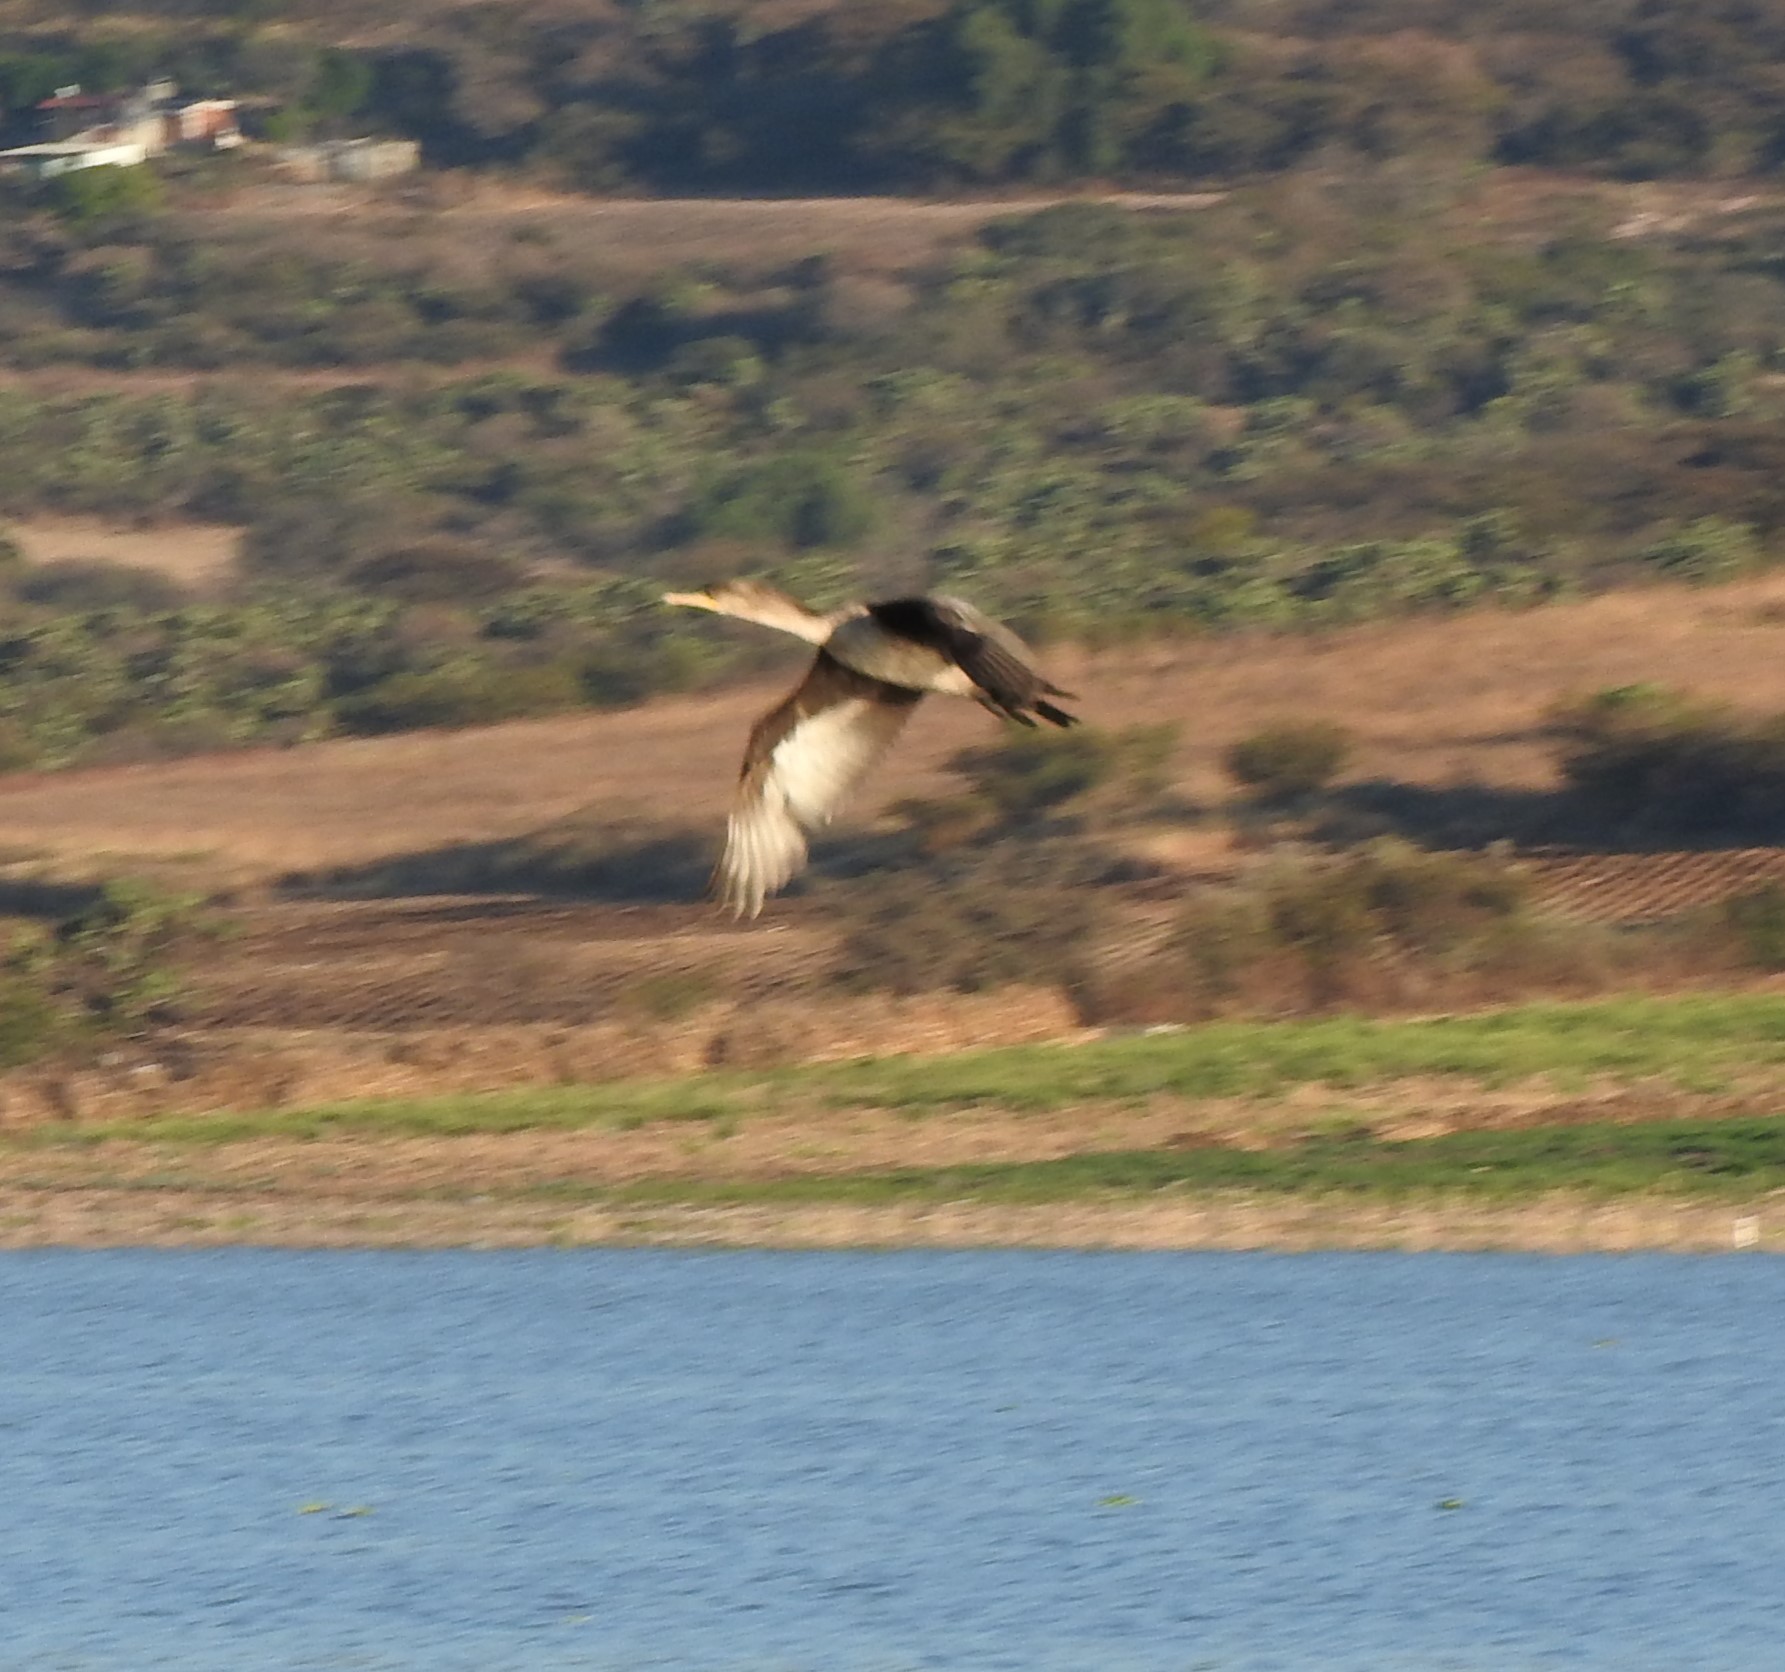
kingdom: Animalia
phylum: Chordata
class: Aves
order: Suliformes
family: Phalacrocoracidae
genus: Phalacrocorax
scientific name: Phalacrocorax auritus
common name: Double-crested cormorant
